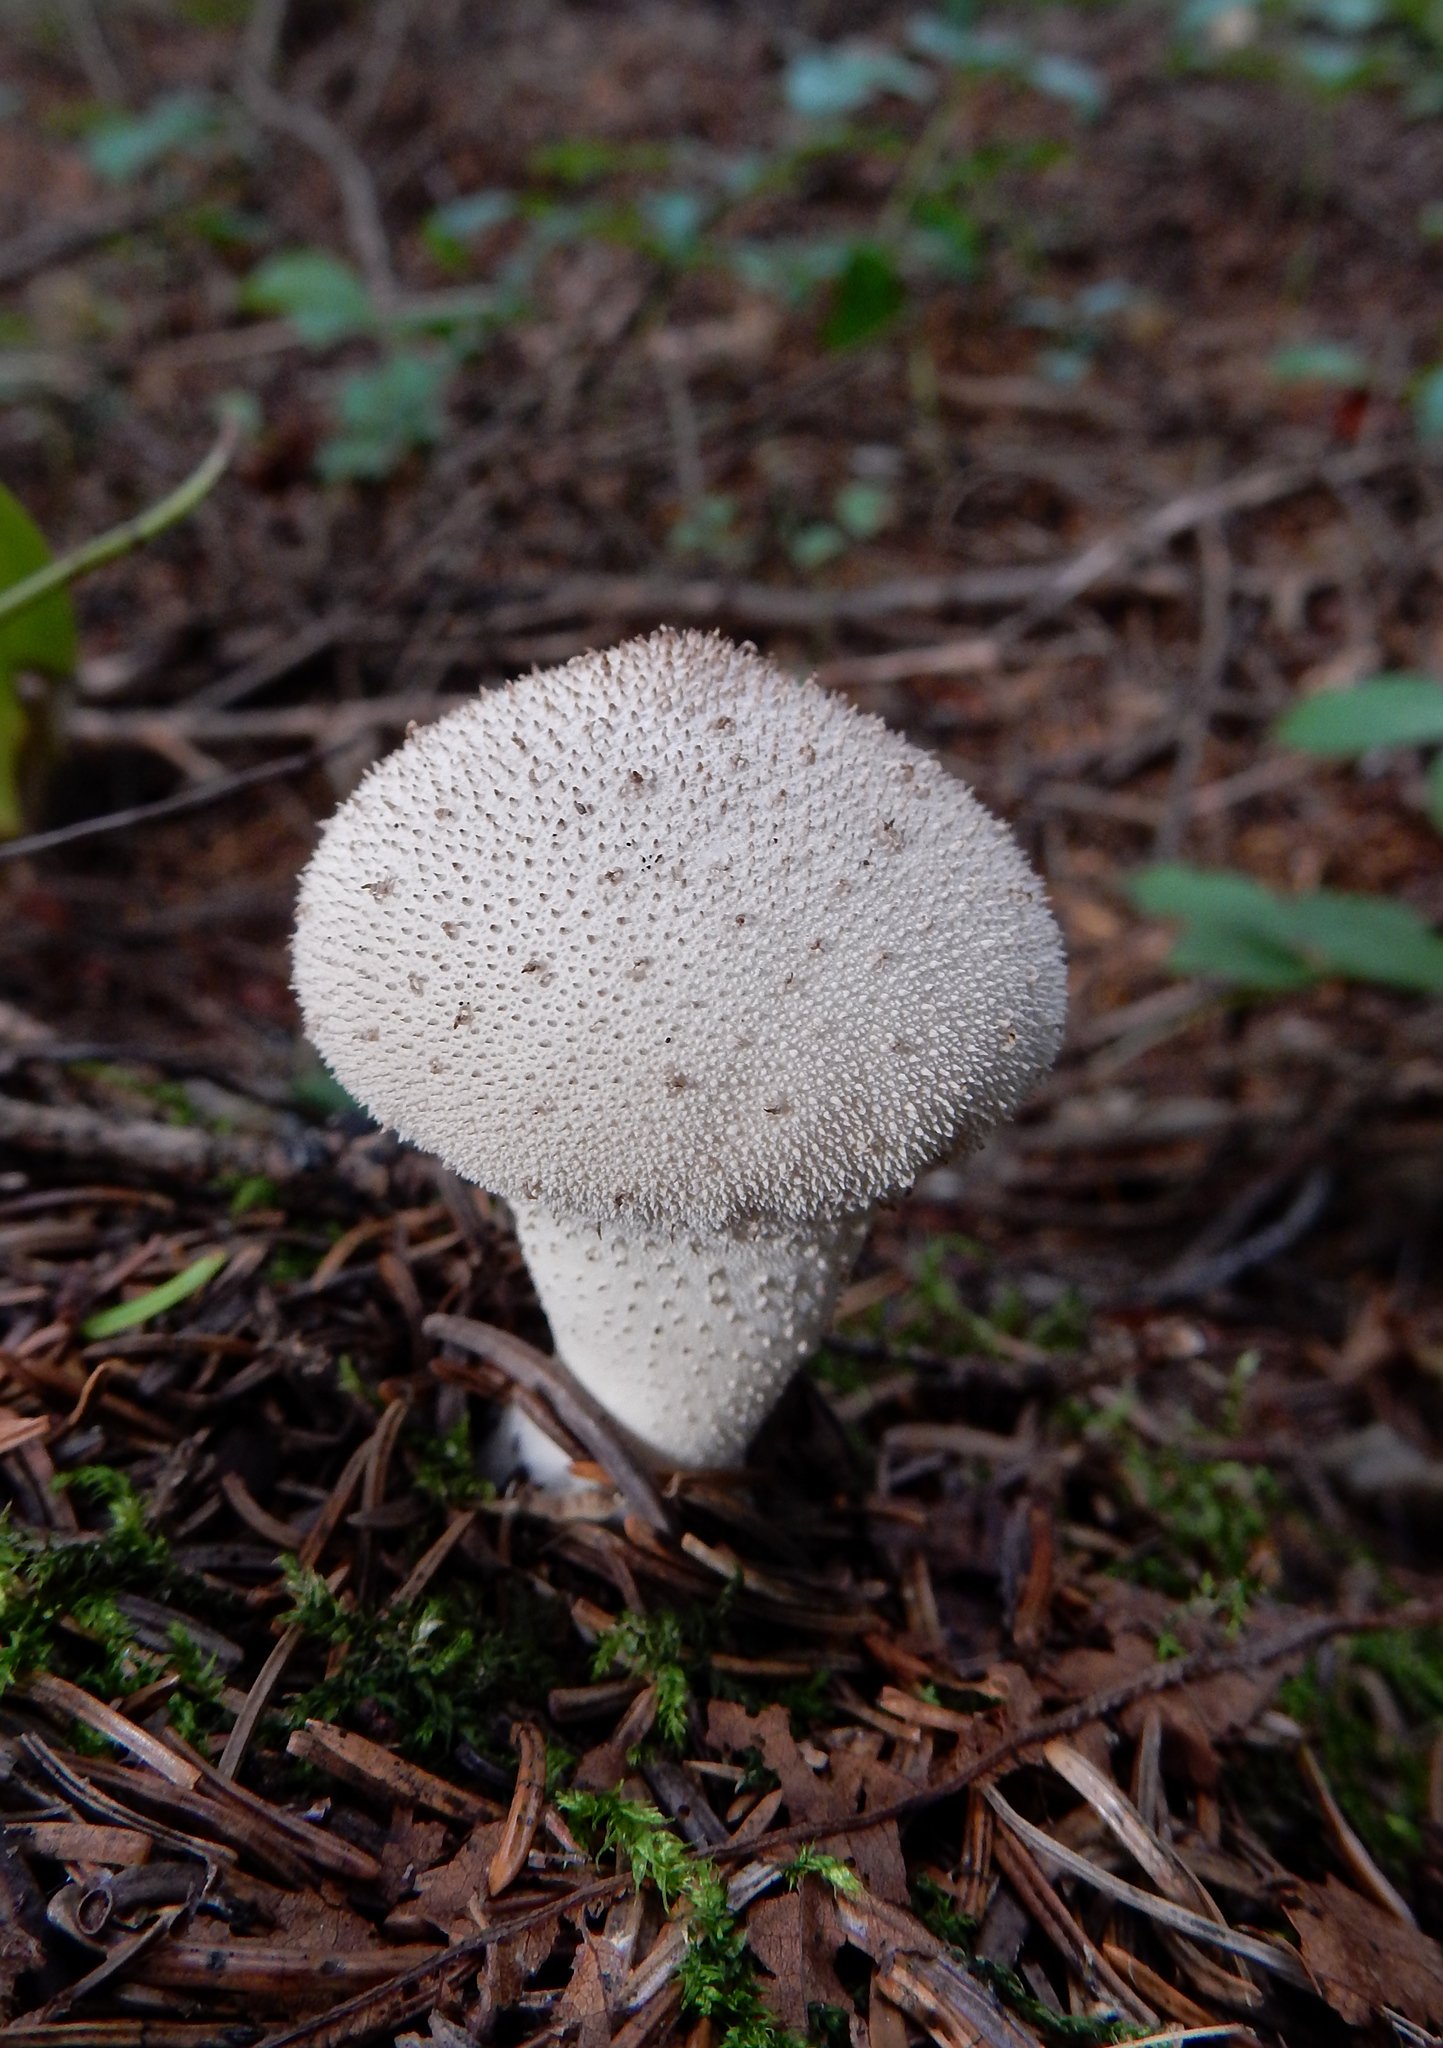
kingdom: Fungi
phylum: Basidiomycota
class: Agaricomycetes
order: Agaricales
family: Lycoperdaceae
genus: Lycoperdon
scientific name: Lycoperdon perlatum
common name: Common puffball
